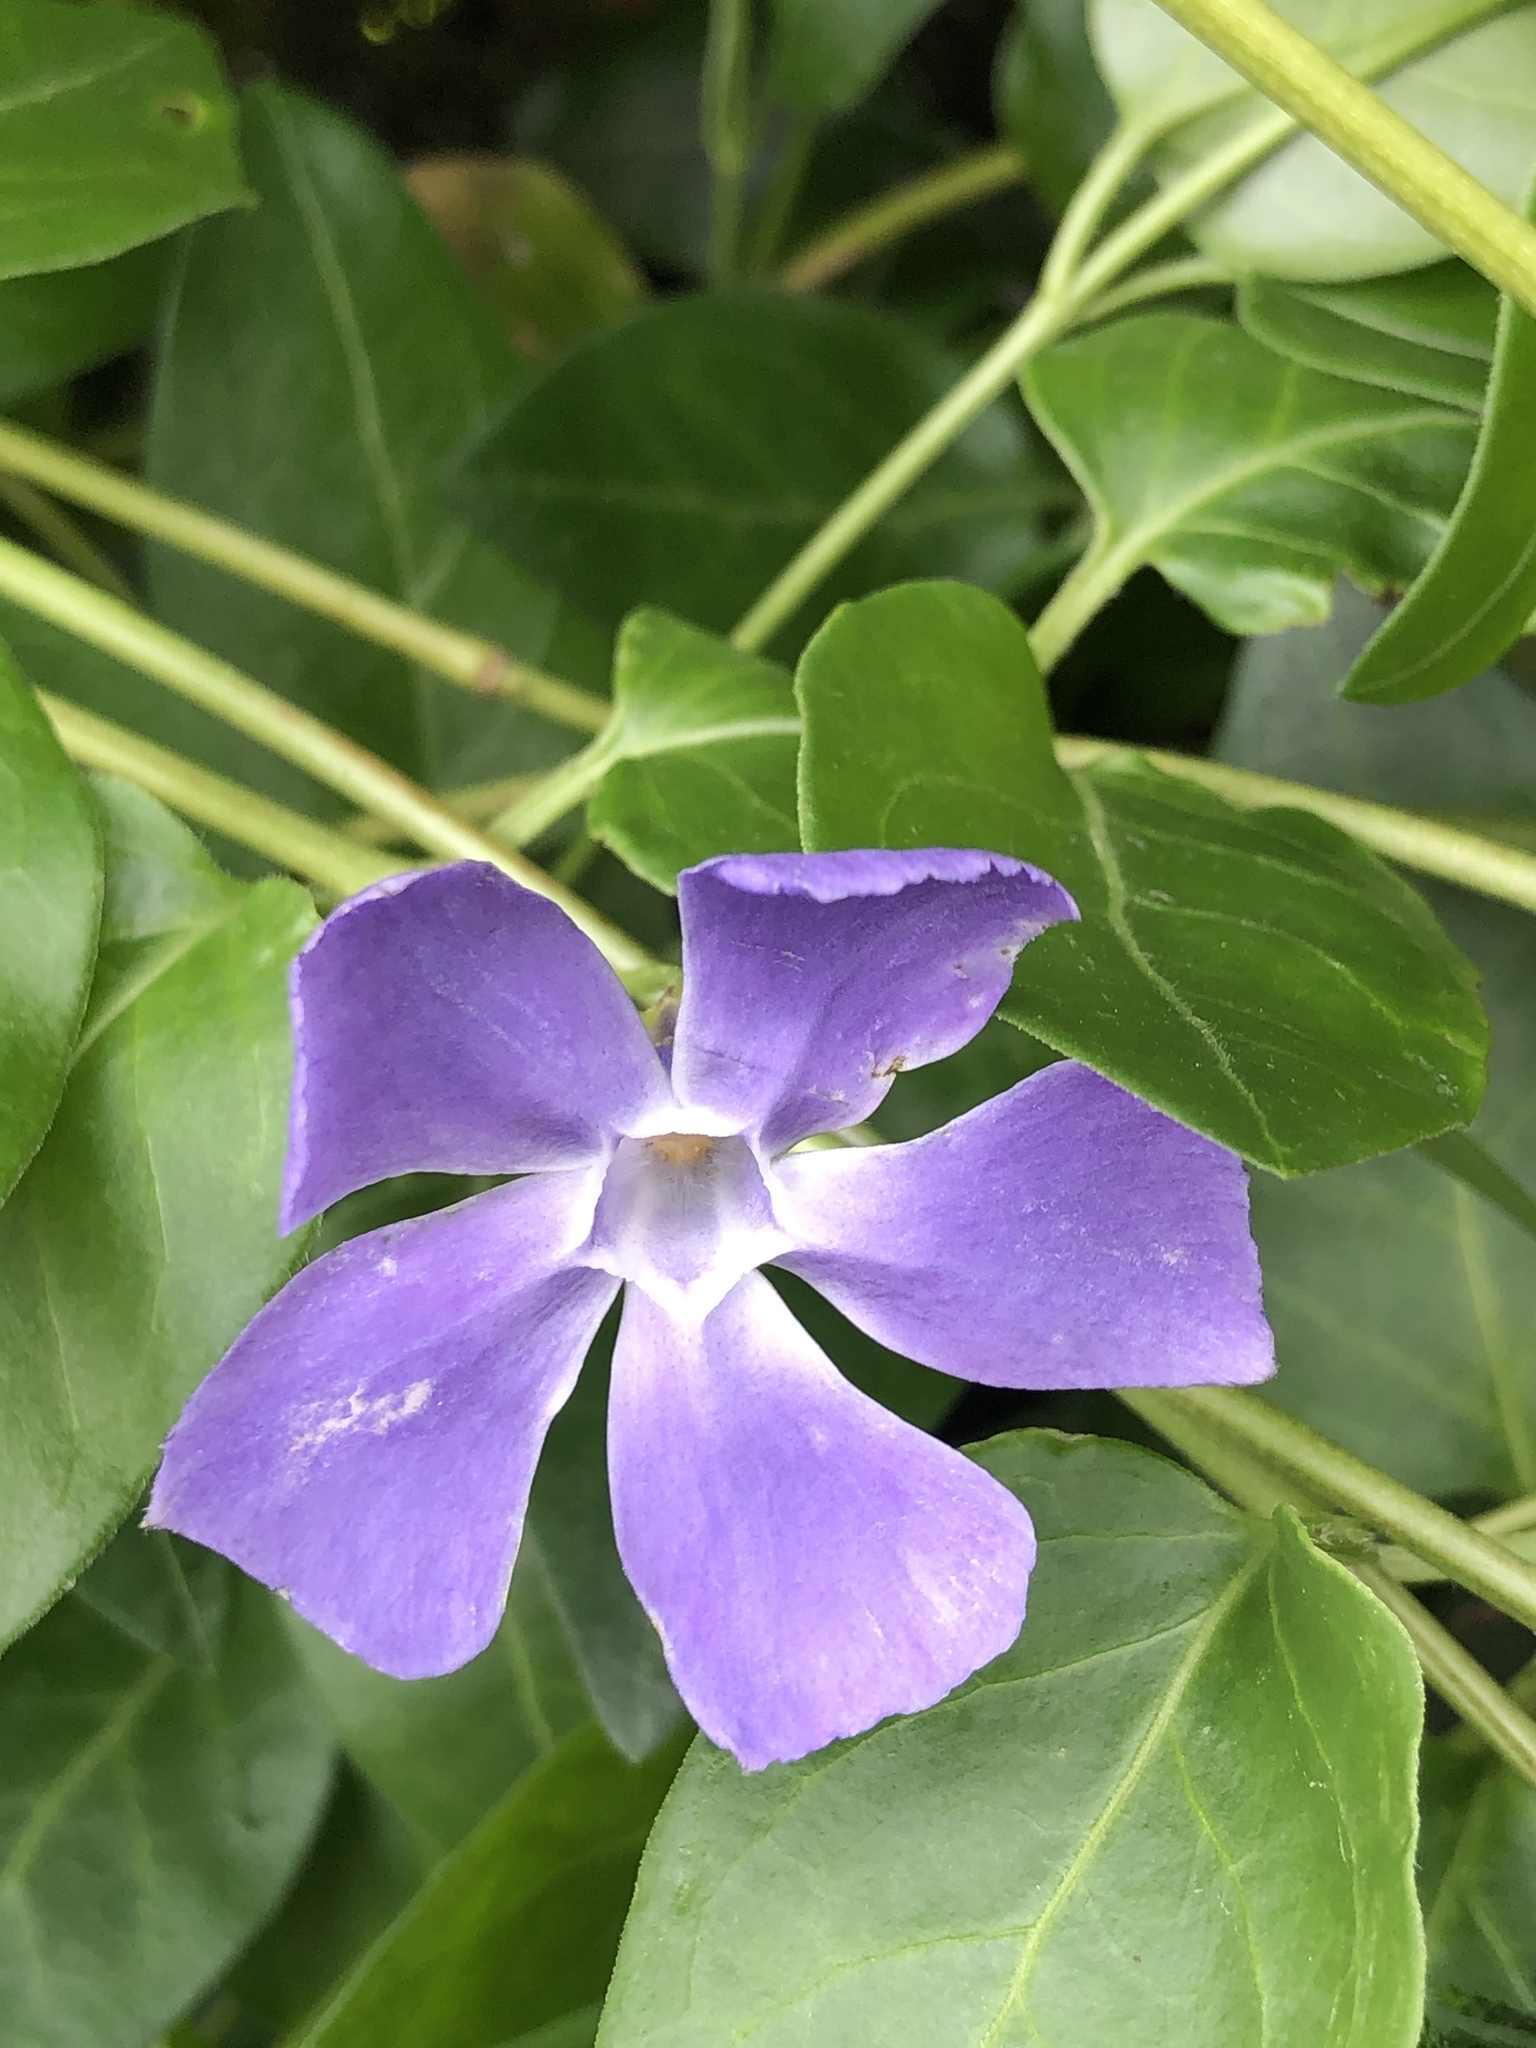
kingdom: Plantae
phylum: Tracheophyta
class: Magnoliopsida
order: Gentianales
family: Apocynaceae
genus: Vinca
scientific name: Vinca major
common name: Greater periwinkle
